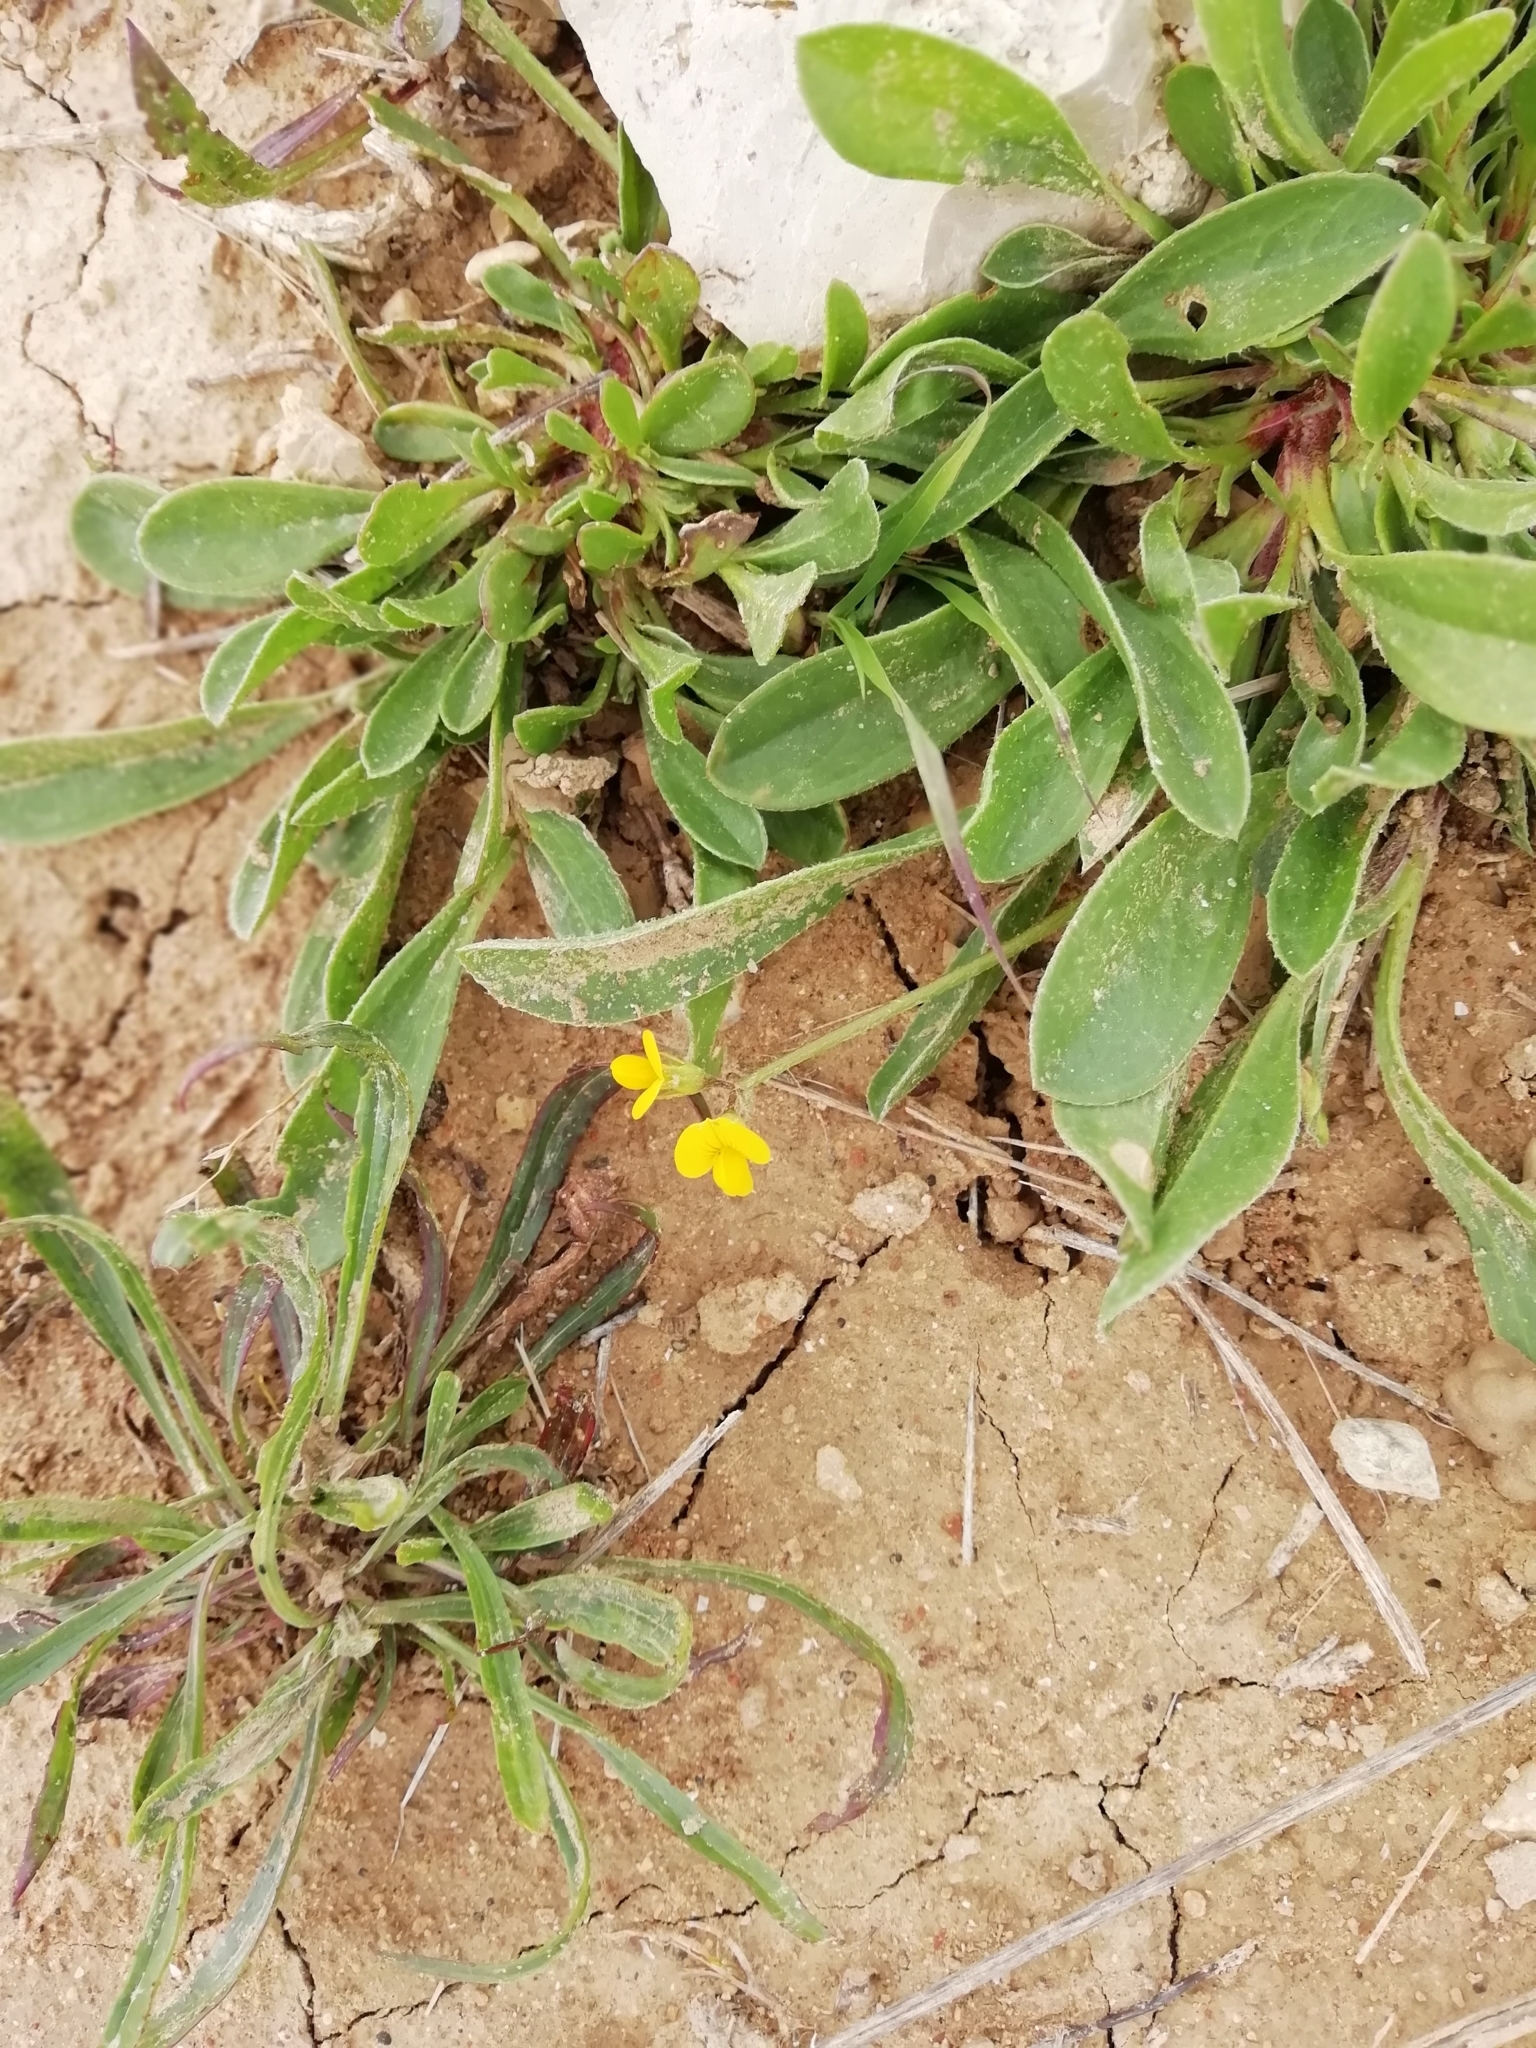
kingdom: Plantae
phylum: Tracheophyta
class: Magnoliopsida
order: Fabales
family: Fabaceae
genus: Scorpiurus
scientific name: Scorpiurus muricatus
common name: Caterpillar-plant
